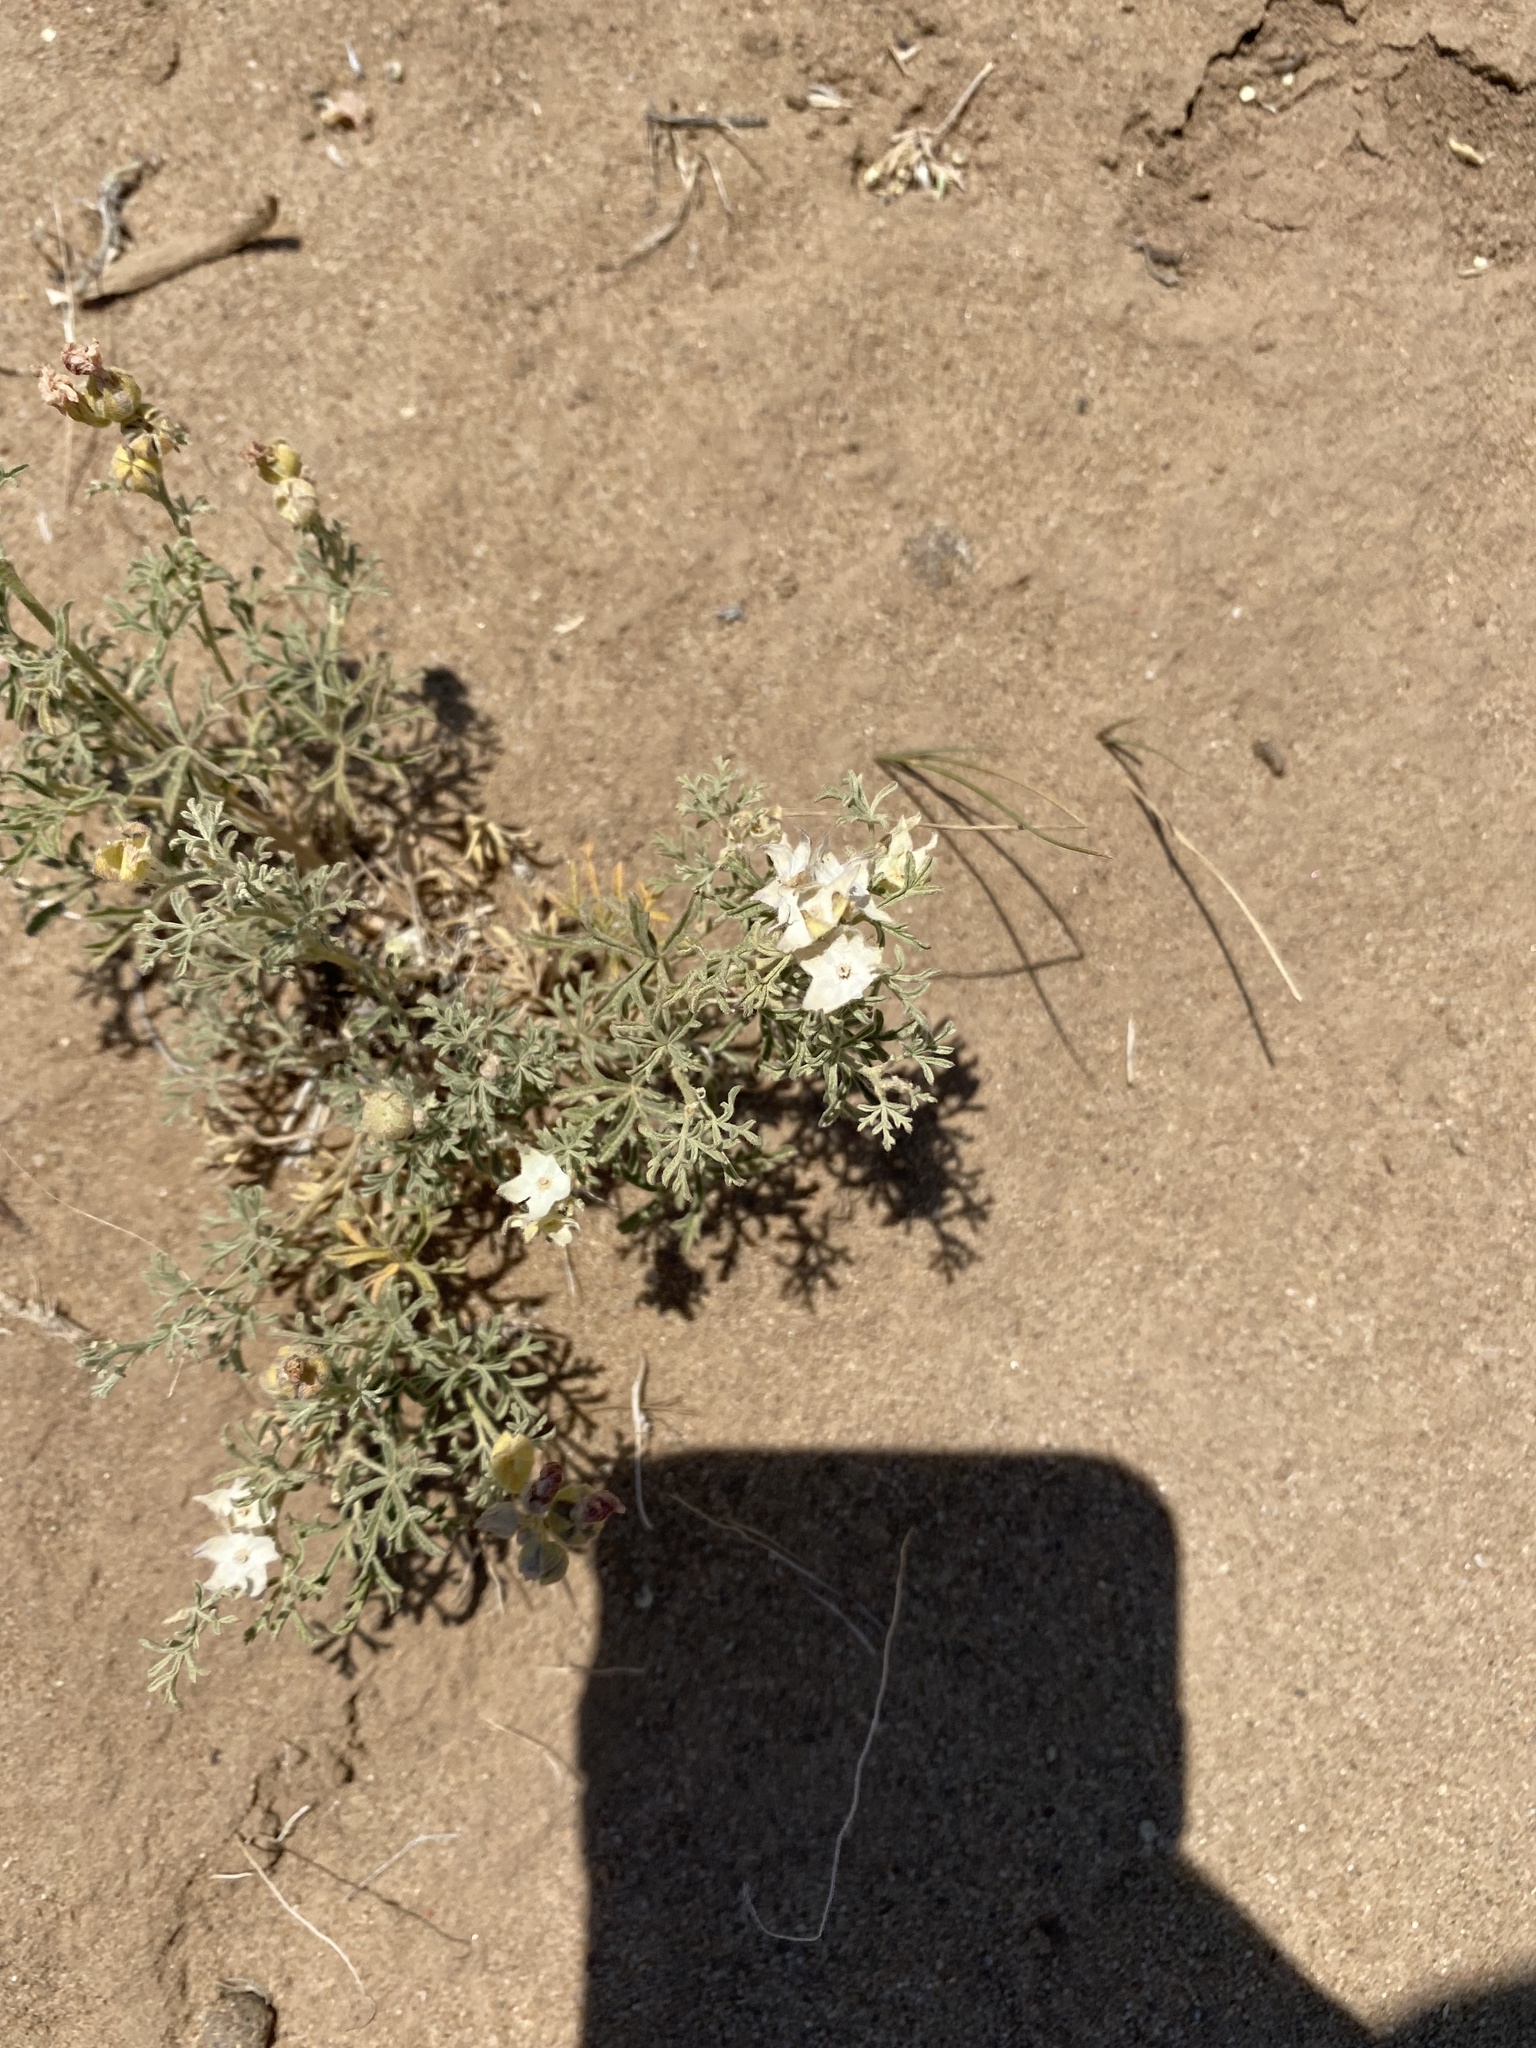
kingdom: Plantae
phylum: Tracheophyta
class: Magnoliopsida
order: Malvales
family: Malvaceae
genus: Sphaeralcea
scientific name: Sphaeralcea coccinea
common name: Moss-rose
